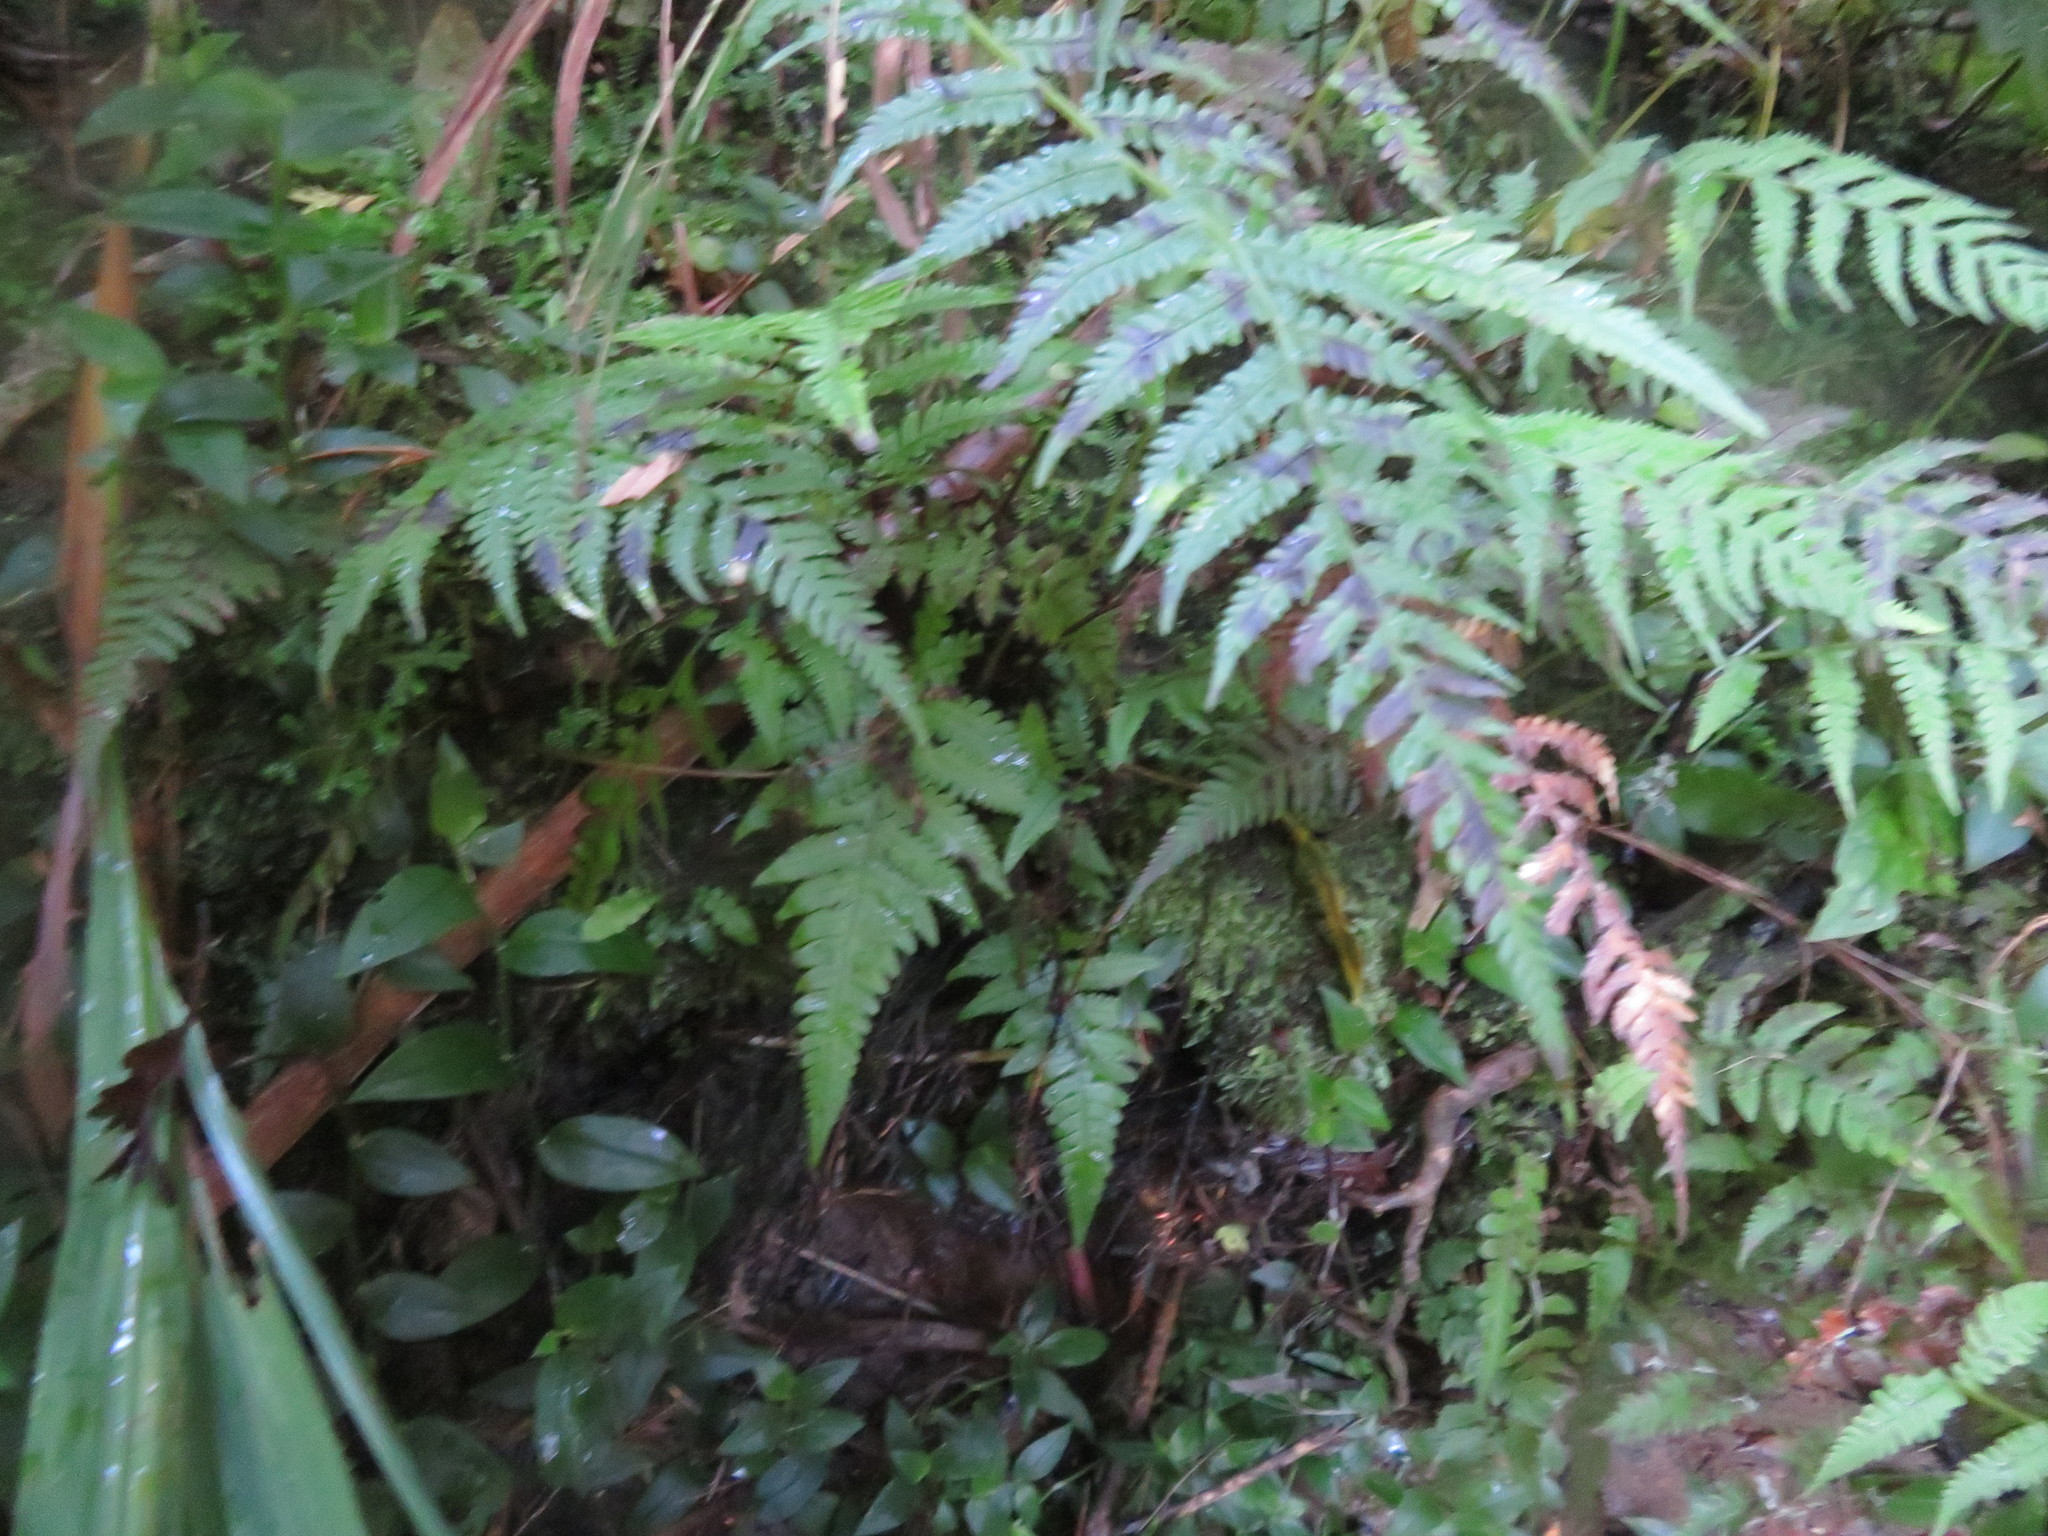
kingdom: Plantae
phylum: Tracheophyta
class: Polypodiopsida
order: Polypodiales
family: Athyriaceae
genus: Deparia
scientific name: Deparia petersenii
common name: Japanese false spleenwort
